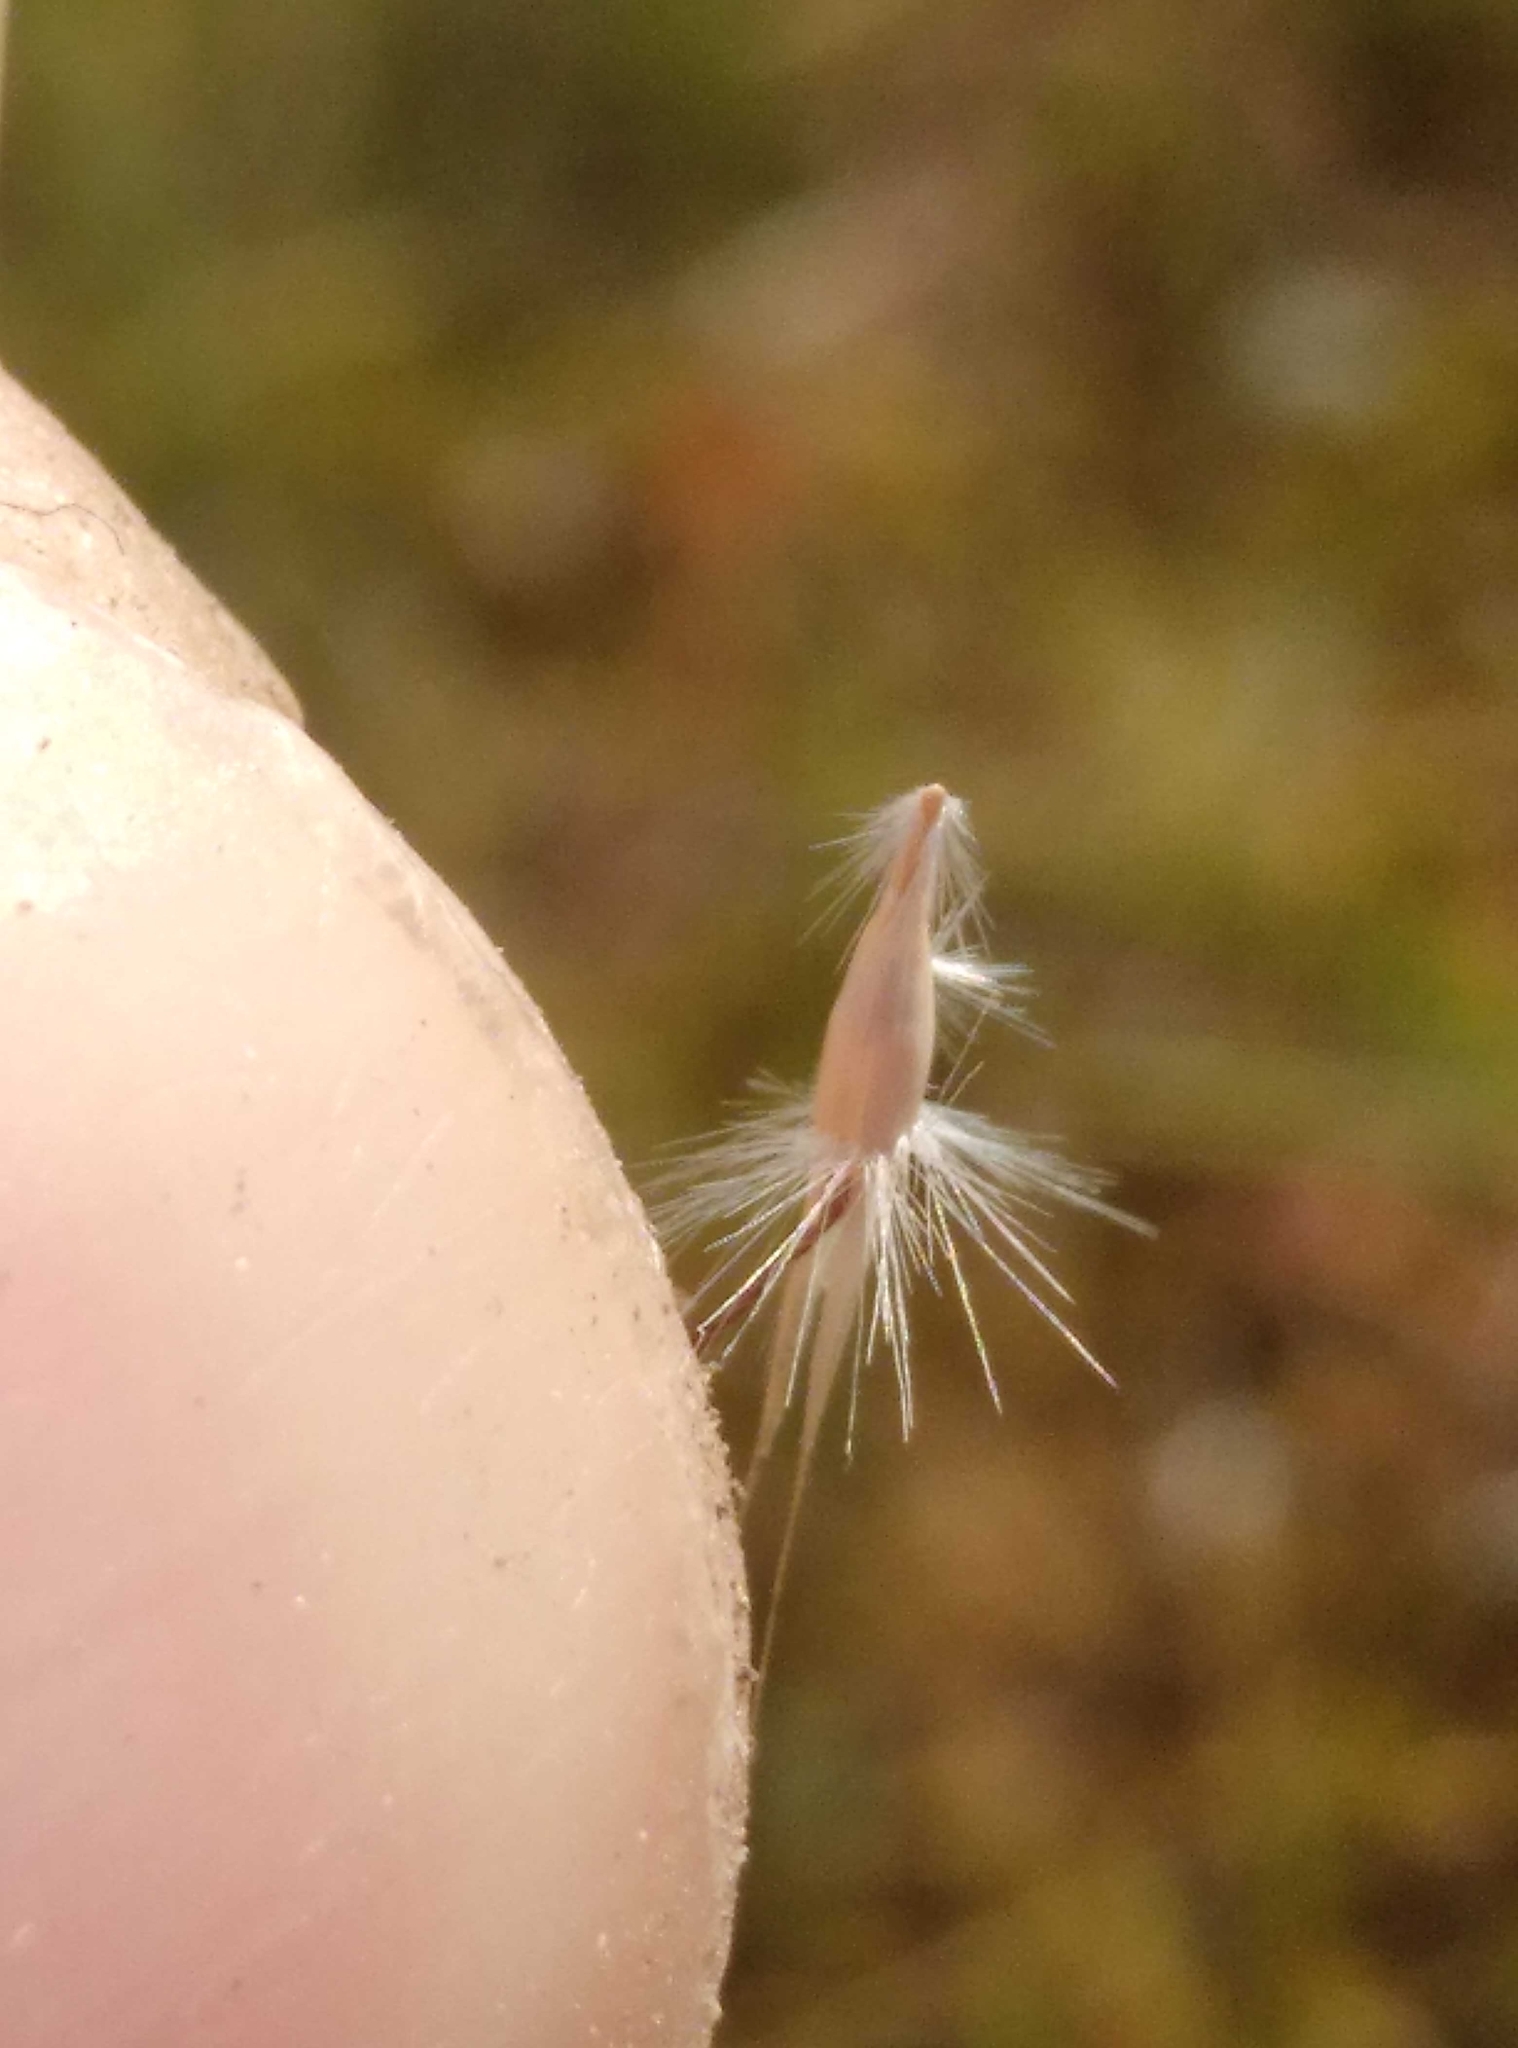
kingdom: Plantae
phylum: Tracheophyta
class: Liliopsida
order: Poales
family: Poaceae
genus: Rytidosperma
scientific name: Rytidosperma laeve
